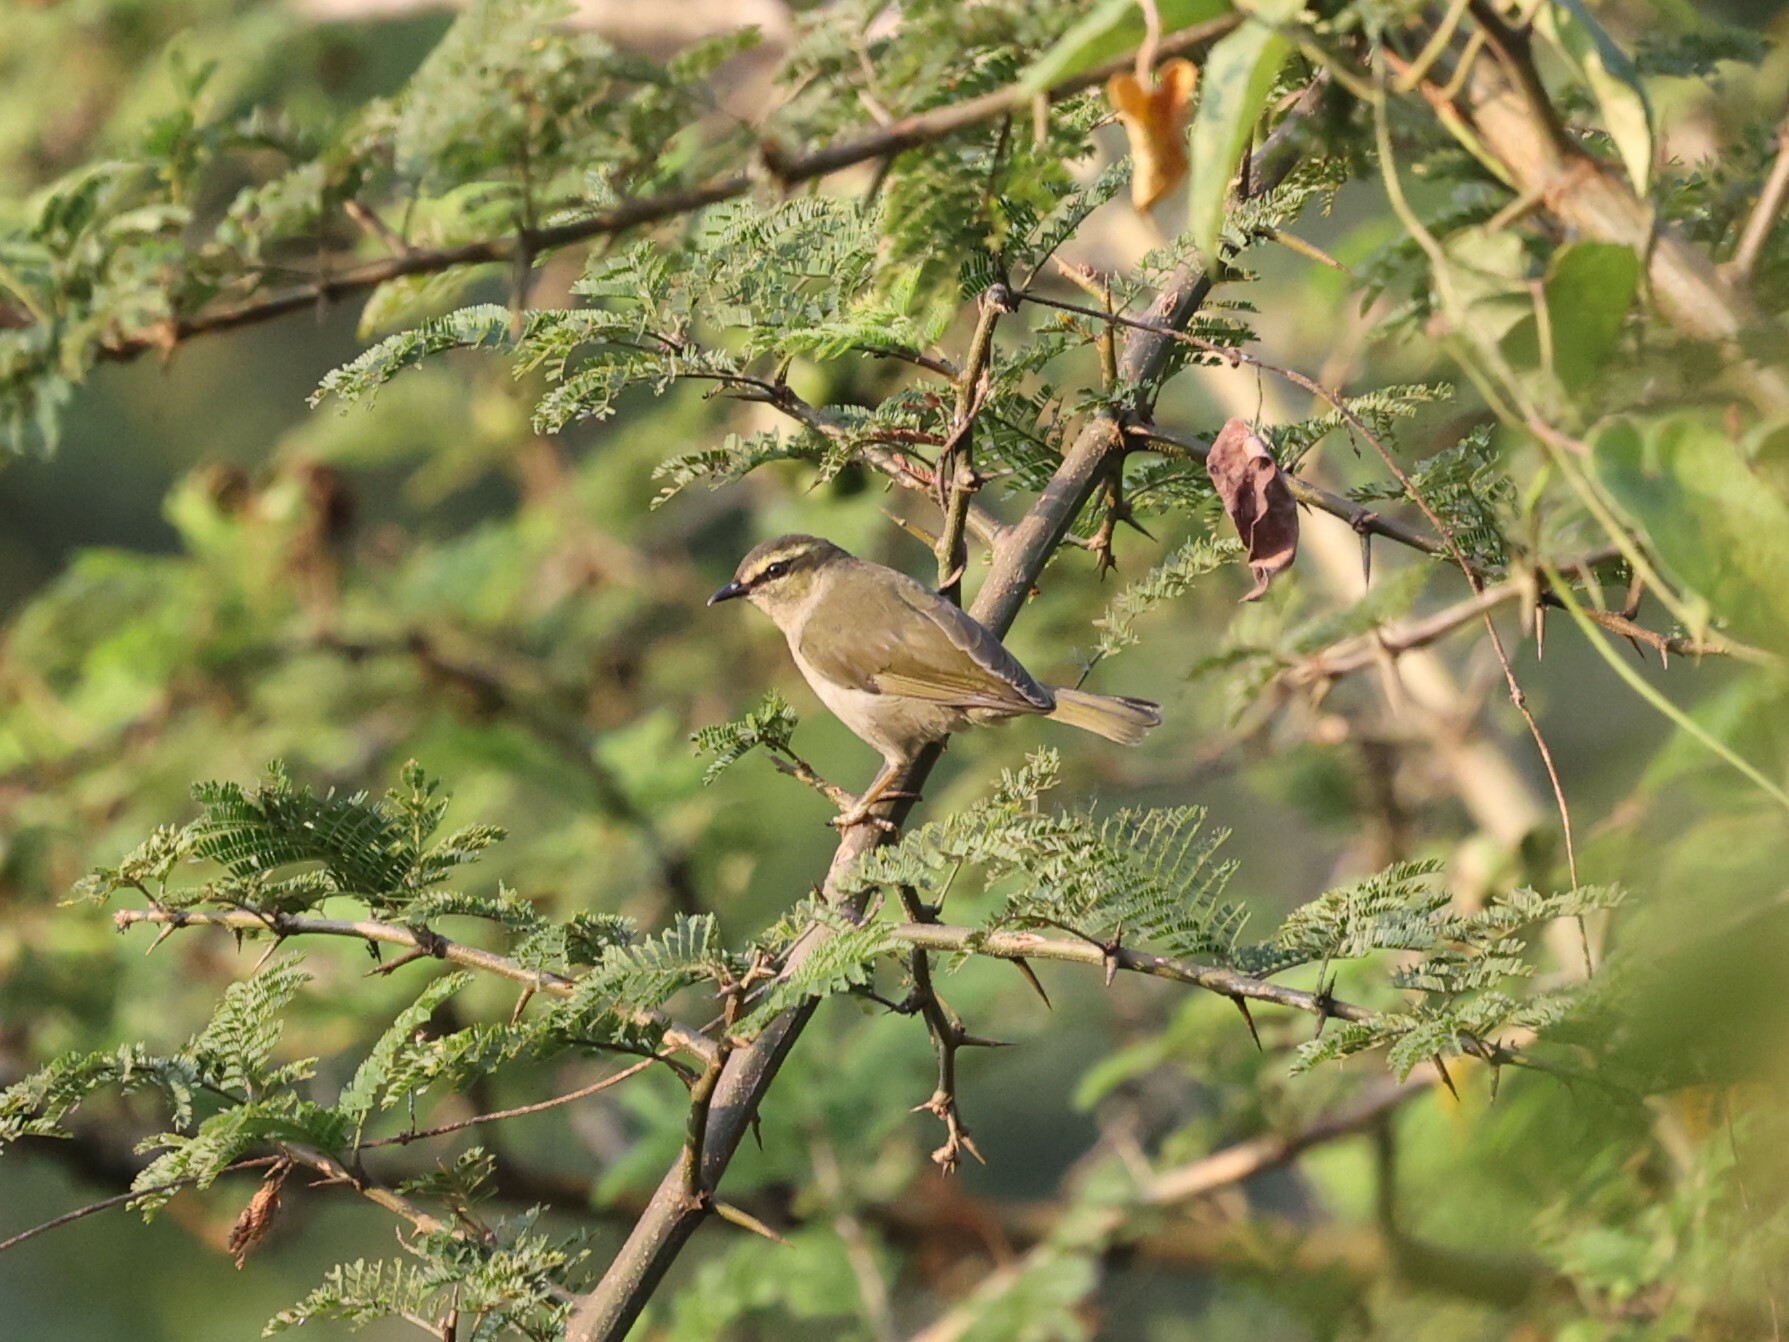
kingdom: Animalia
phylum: Chordata
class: Aves
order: Passeriformes
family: Cettiidae
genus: Hylia
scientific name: Hylia prasina
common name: Green hylia
